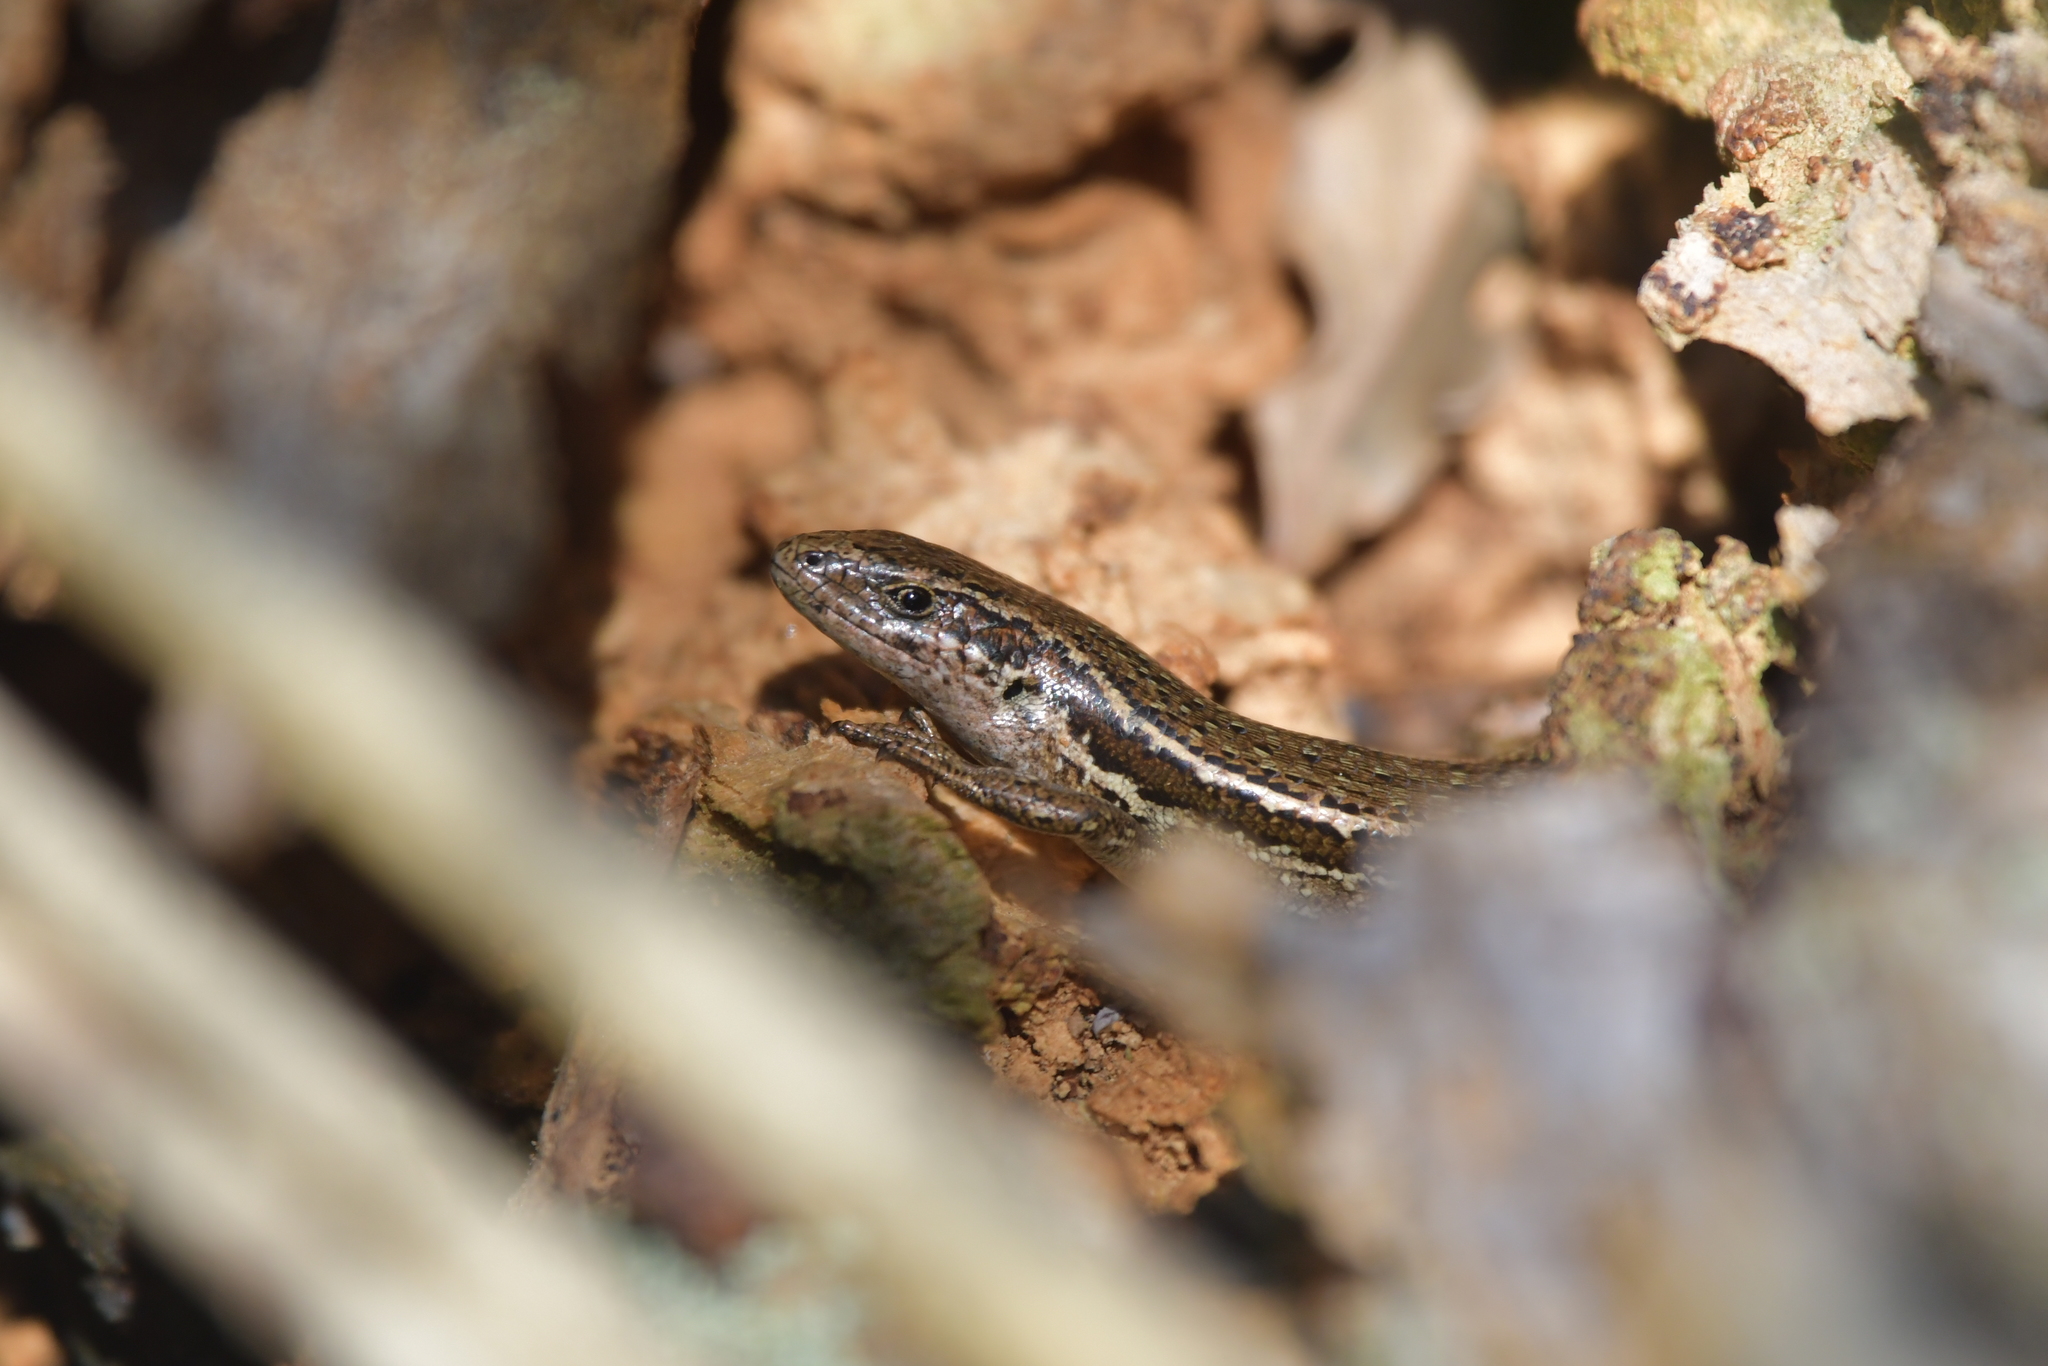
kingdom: Animalia
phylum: Chordata
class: Squamata
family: Scincidae
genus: Oligosoma
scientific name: Oligosoma polychroma
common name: Common new zealand skink
